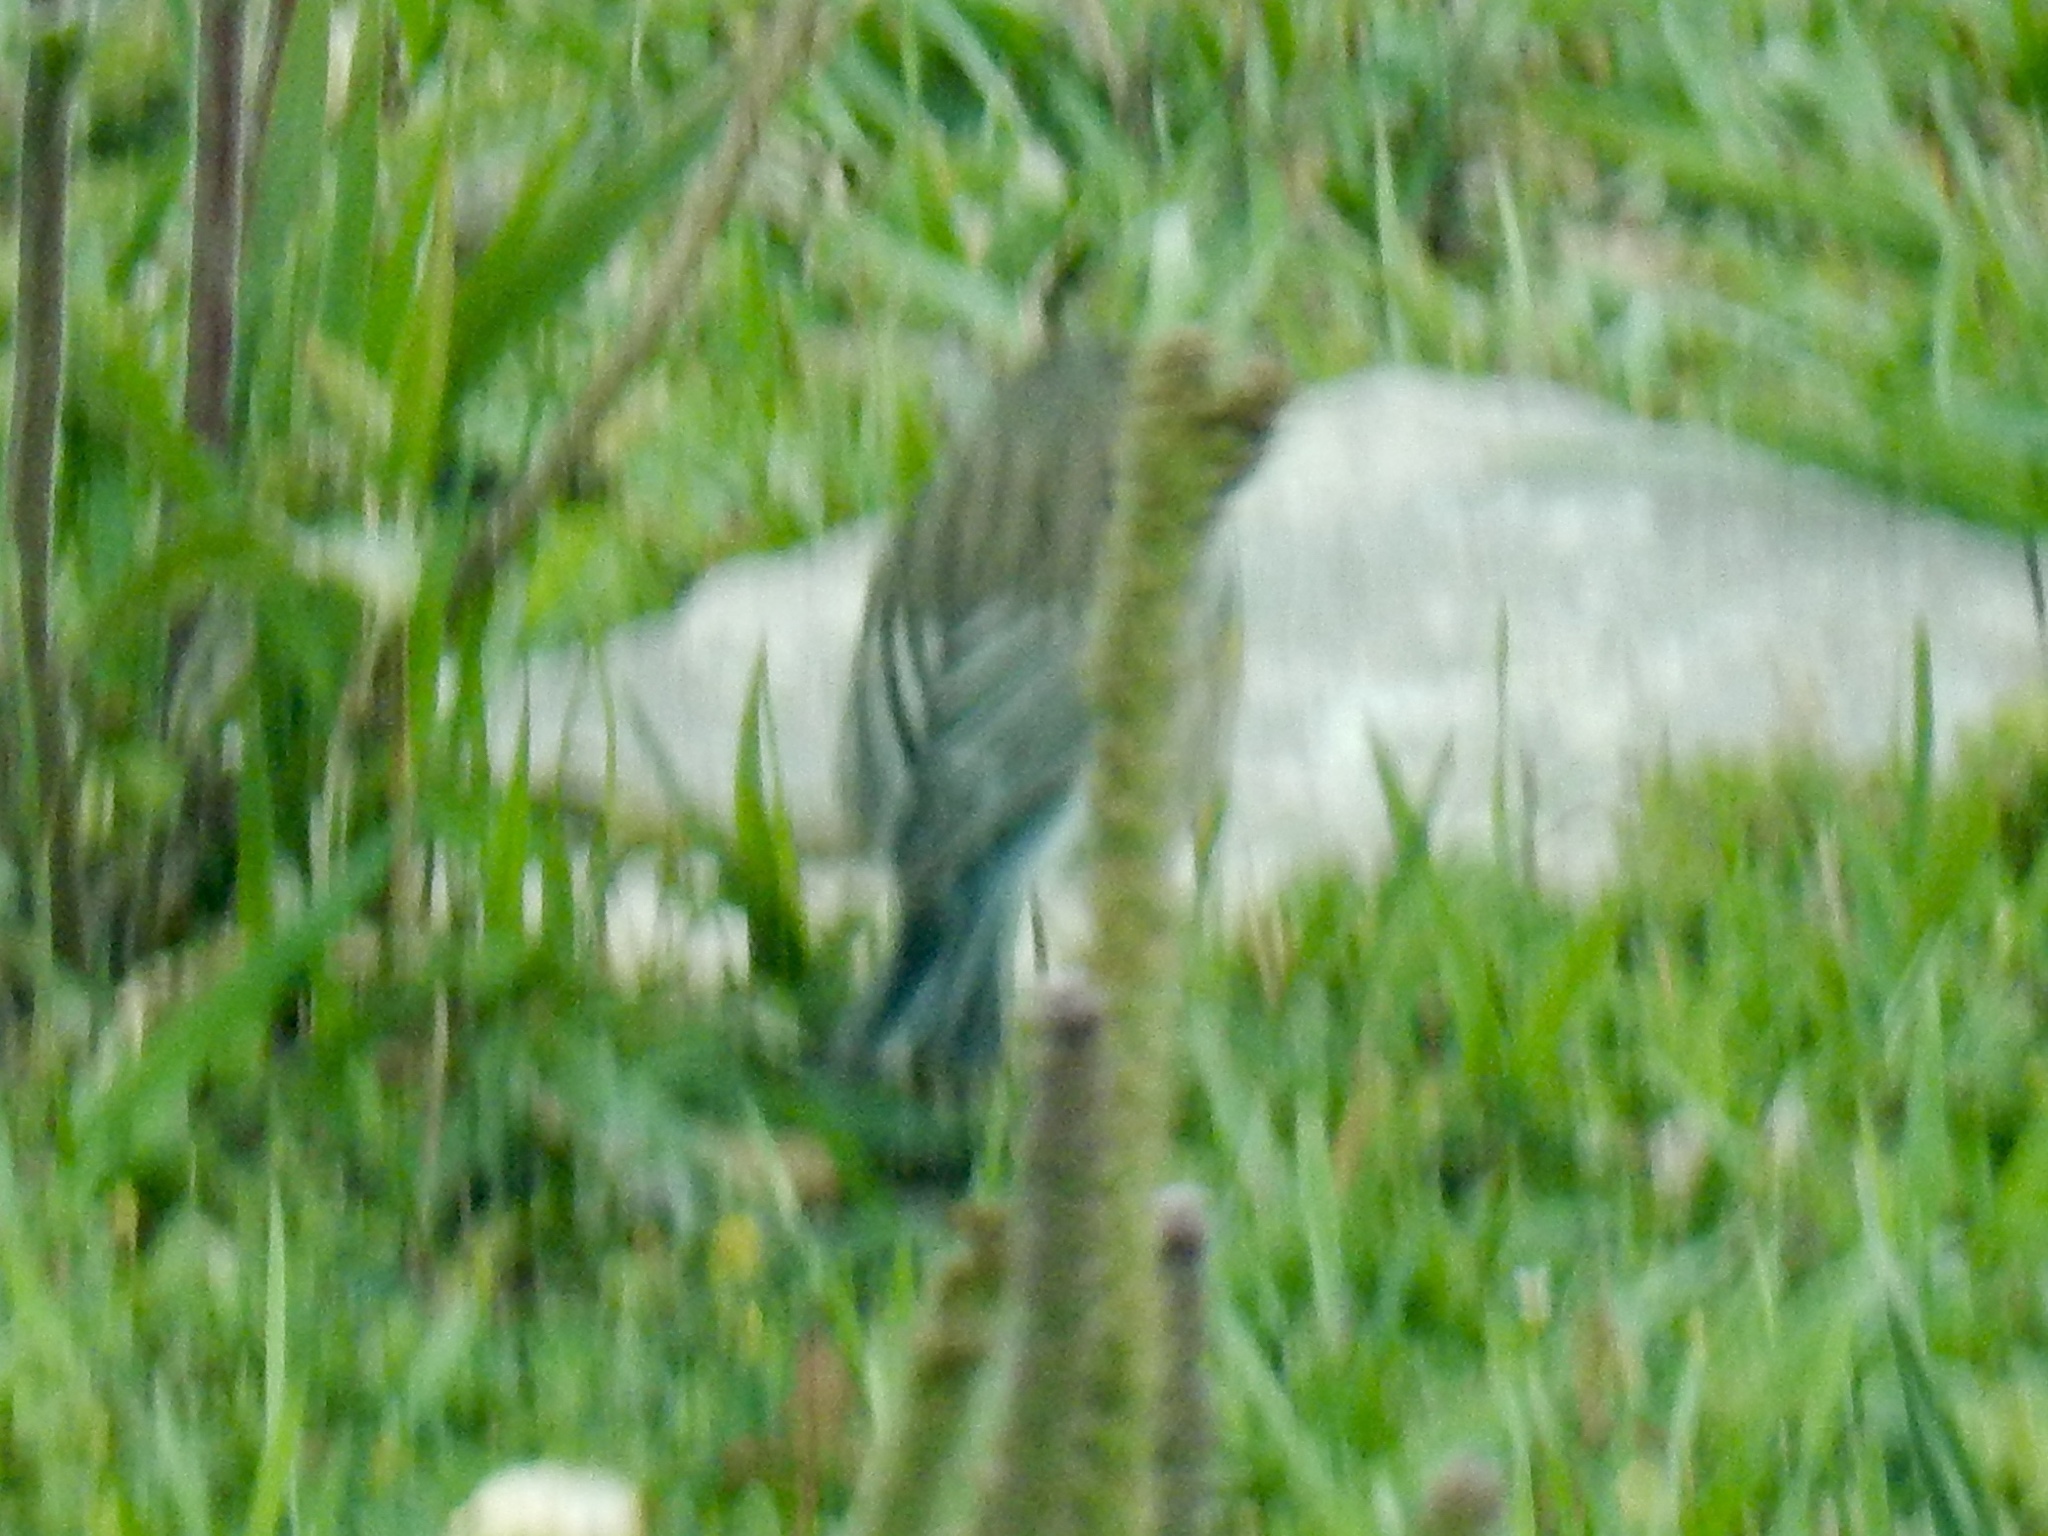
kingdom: Animalia
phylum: Chordata
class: Aves
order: Passeriformes
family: Parulidae
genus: Setophaga
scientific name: Setophaga coronata
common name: Myrtle warbler
